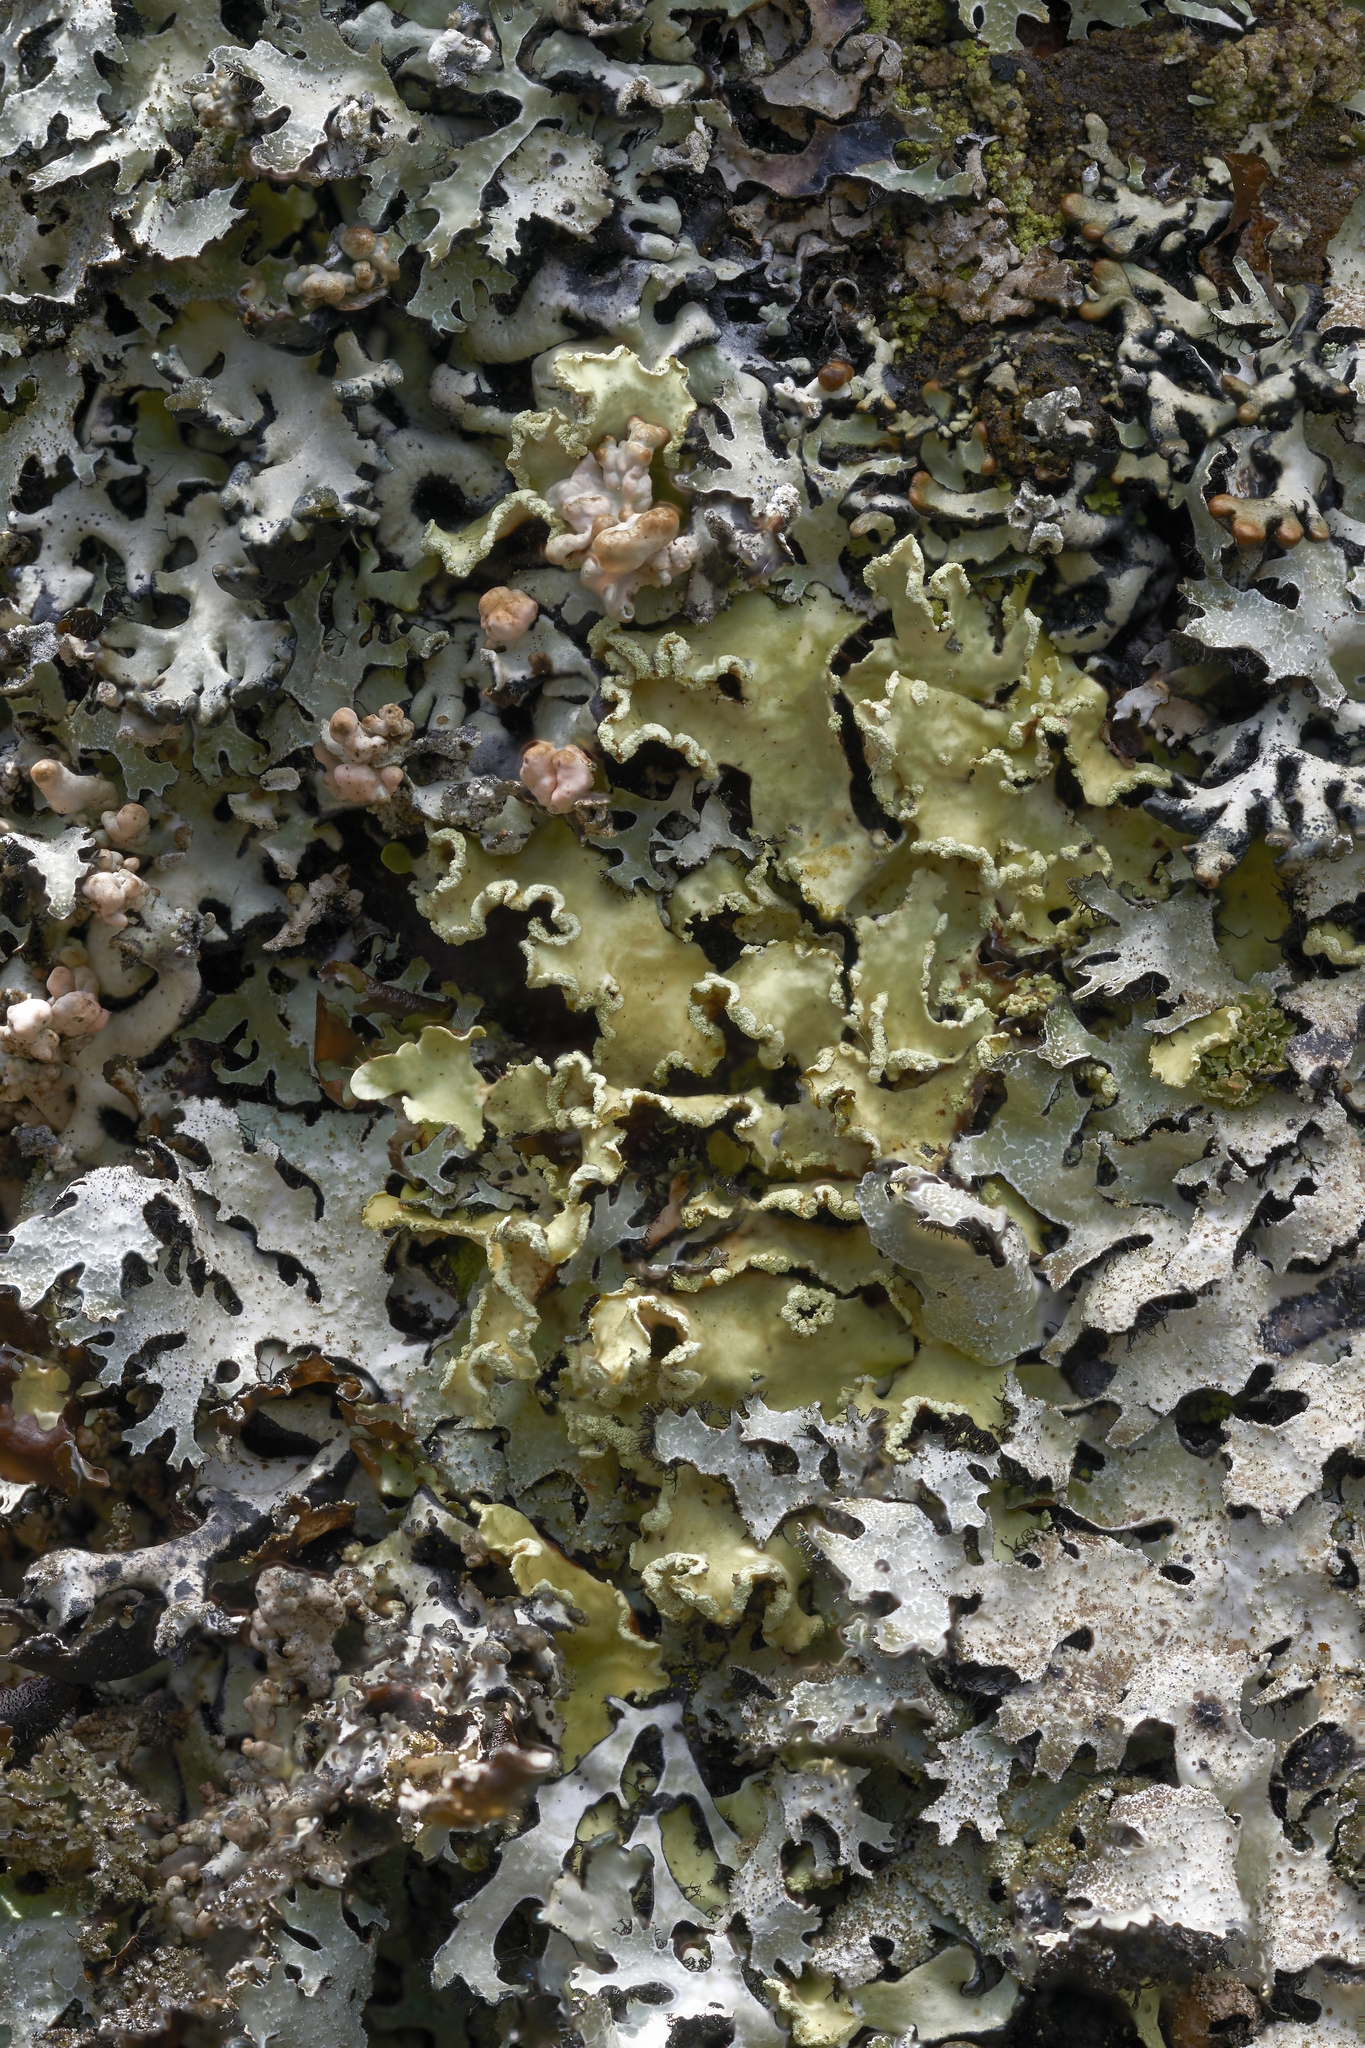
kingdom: Fungi
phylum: Ascomycota
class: Lecanoromycetes
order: Lecanorales
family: Parmeliaceae
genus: Usnocetraria
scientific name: Usnocetraria oakesiana
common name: Yellow ribbon lichen
